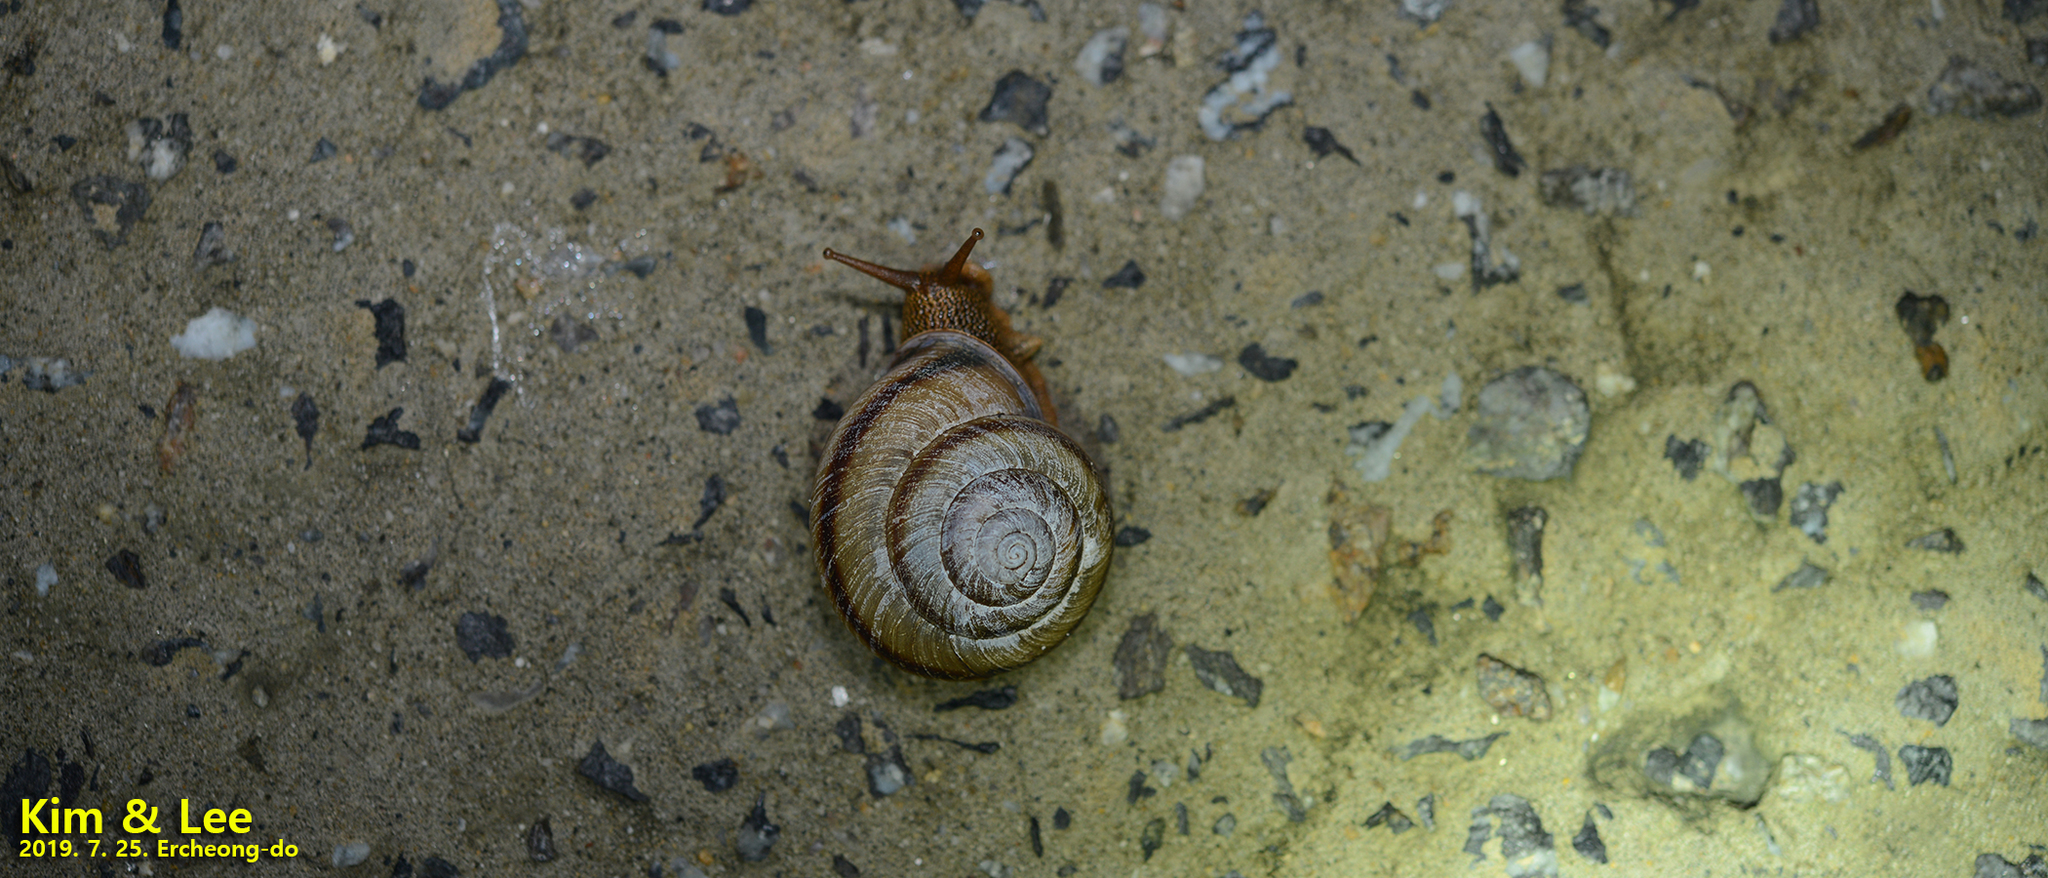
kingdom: Animalia
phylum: Mollusca
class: Gastropoda
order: Stylommatophora
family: Camaenidae
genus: Nesiohelix
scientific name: Nesiohelix samarangae
